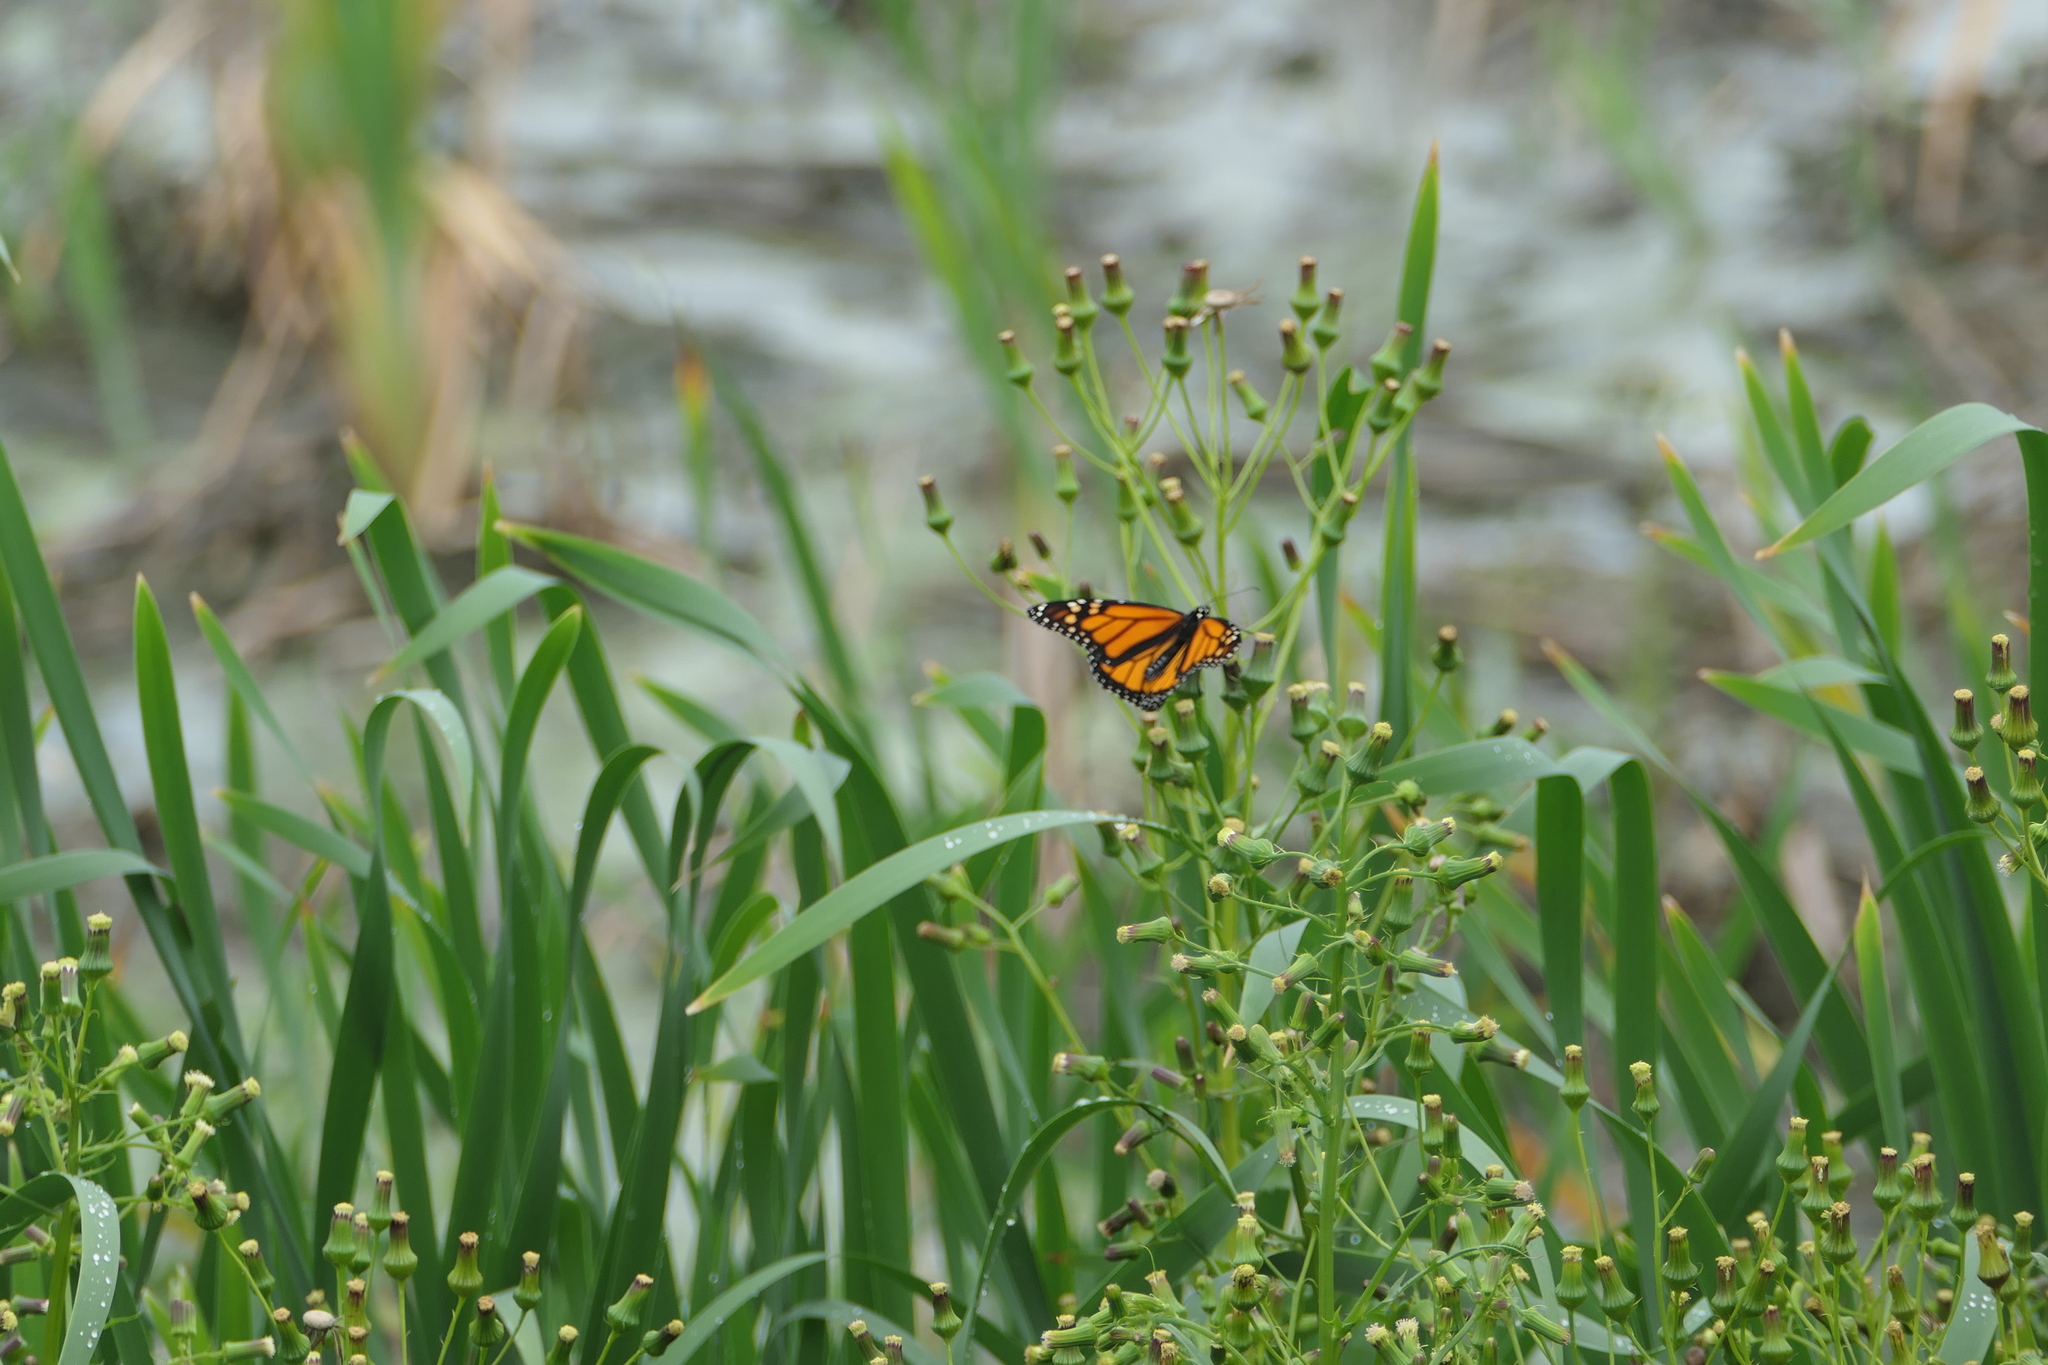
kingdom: Animalia
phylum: Arthropoda
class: Insecta
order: Lepidoptera
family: Nymphalidae
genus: Danaus
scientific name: Danaus plexippus
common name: Monarch
